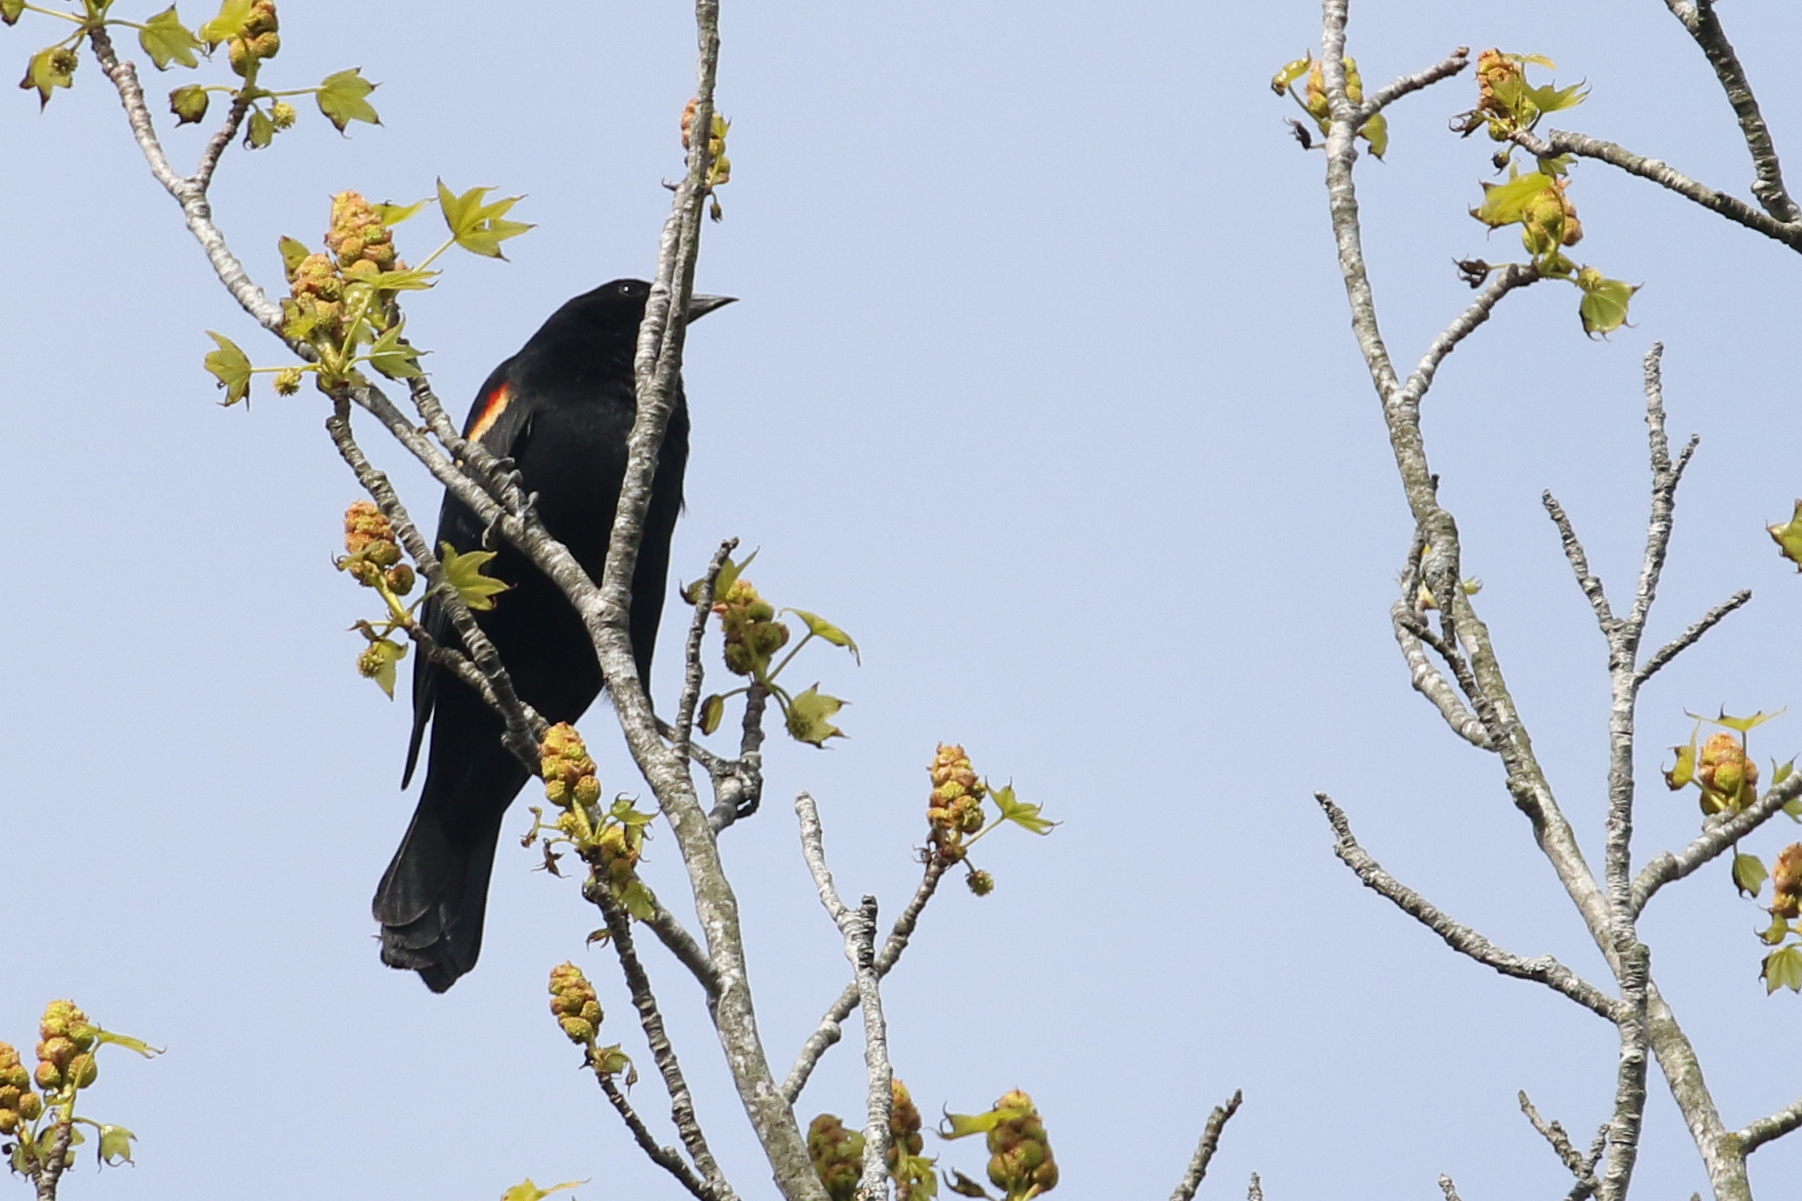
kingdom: Animalia
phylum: Chordata
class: Aves
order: Passeriformes
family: Icteridae
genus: Agelaius
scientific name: Agelaius phoeniceus
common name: Red-winged blackbird
